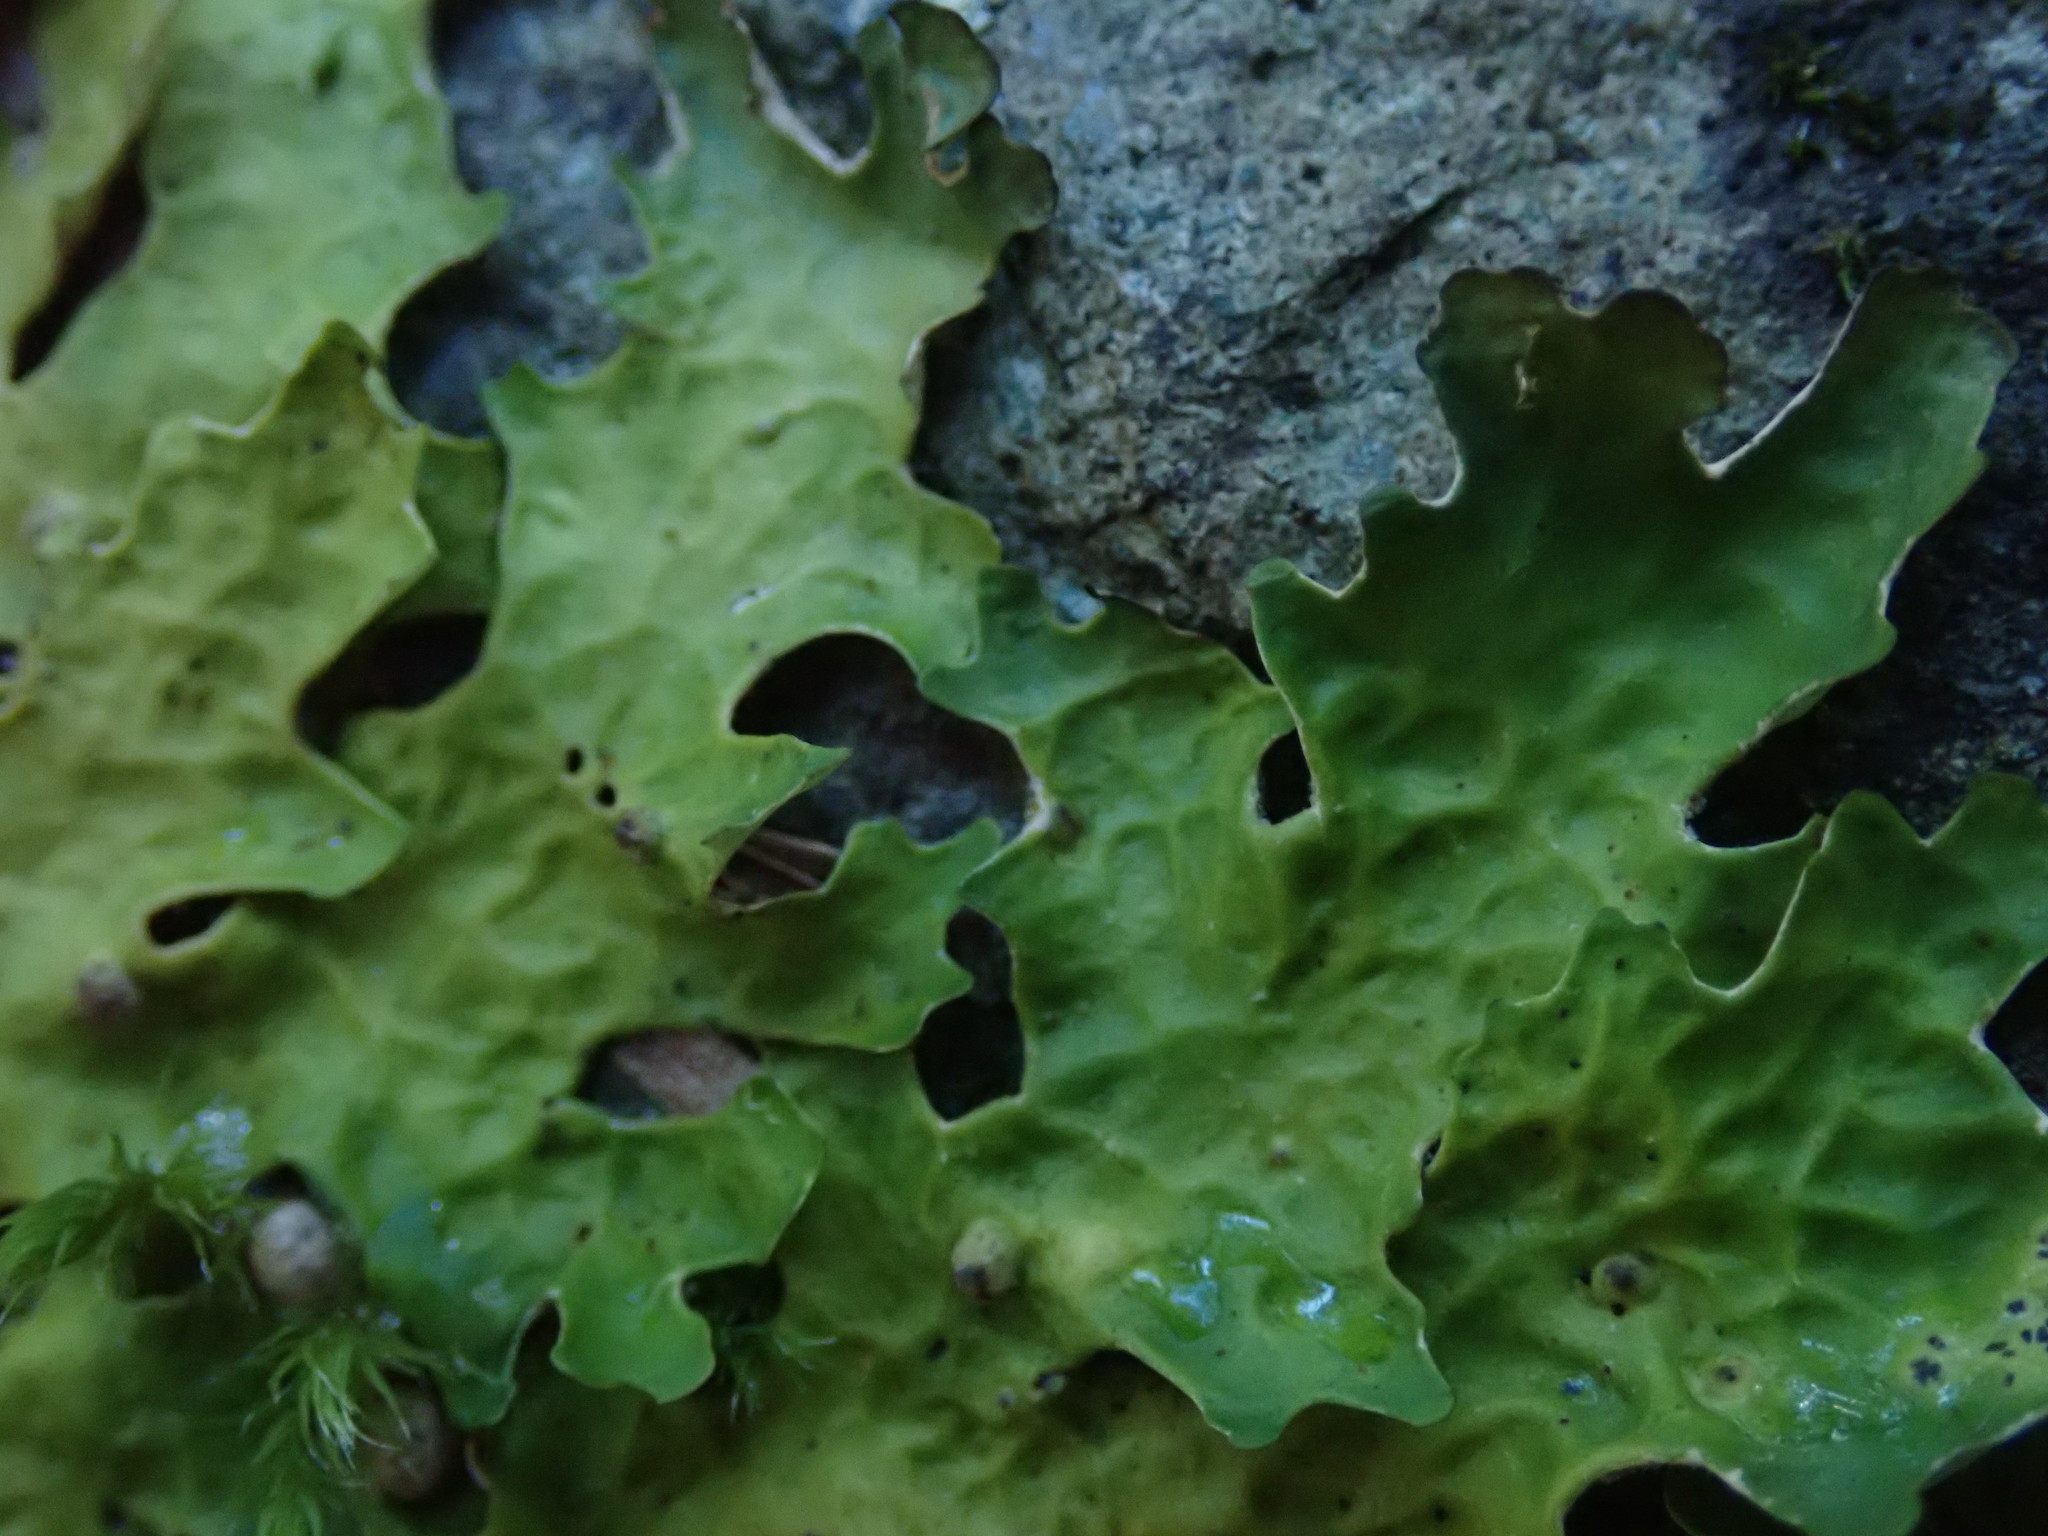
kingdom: Fungi
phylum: Ascomycota
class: Lecanoromycetes
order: Peltigerales
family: Lobariaceae
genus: Lobaria
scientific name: Lobaria linita
